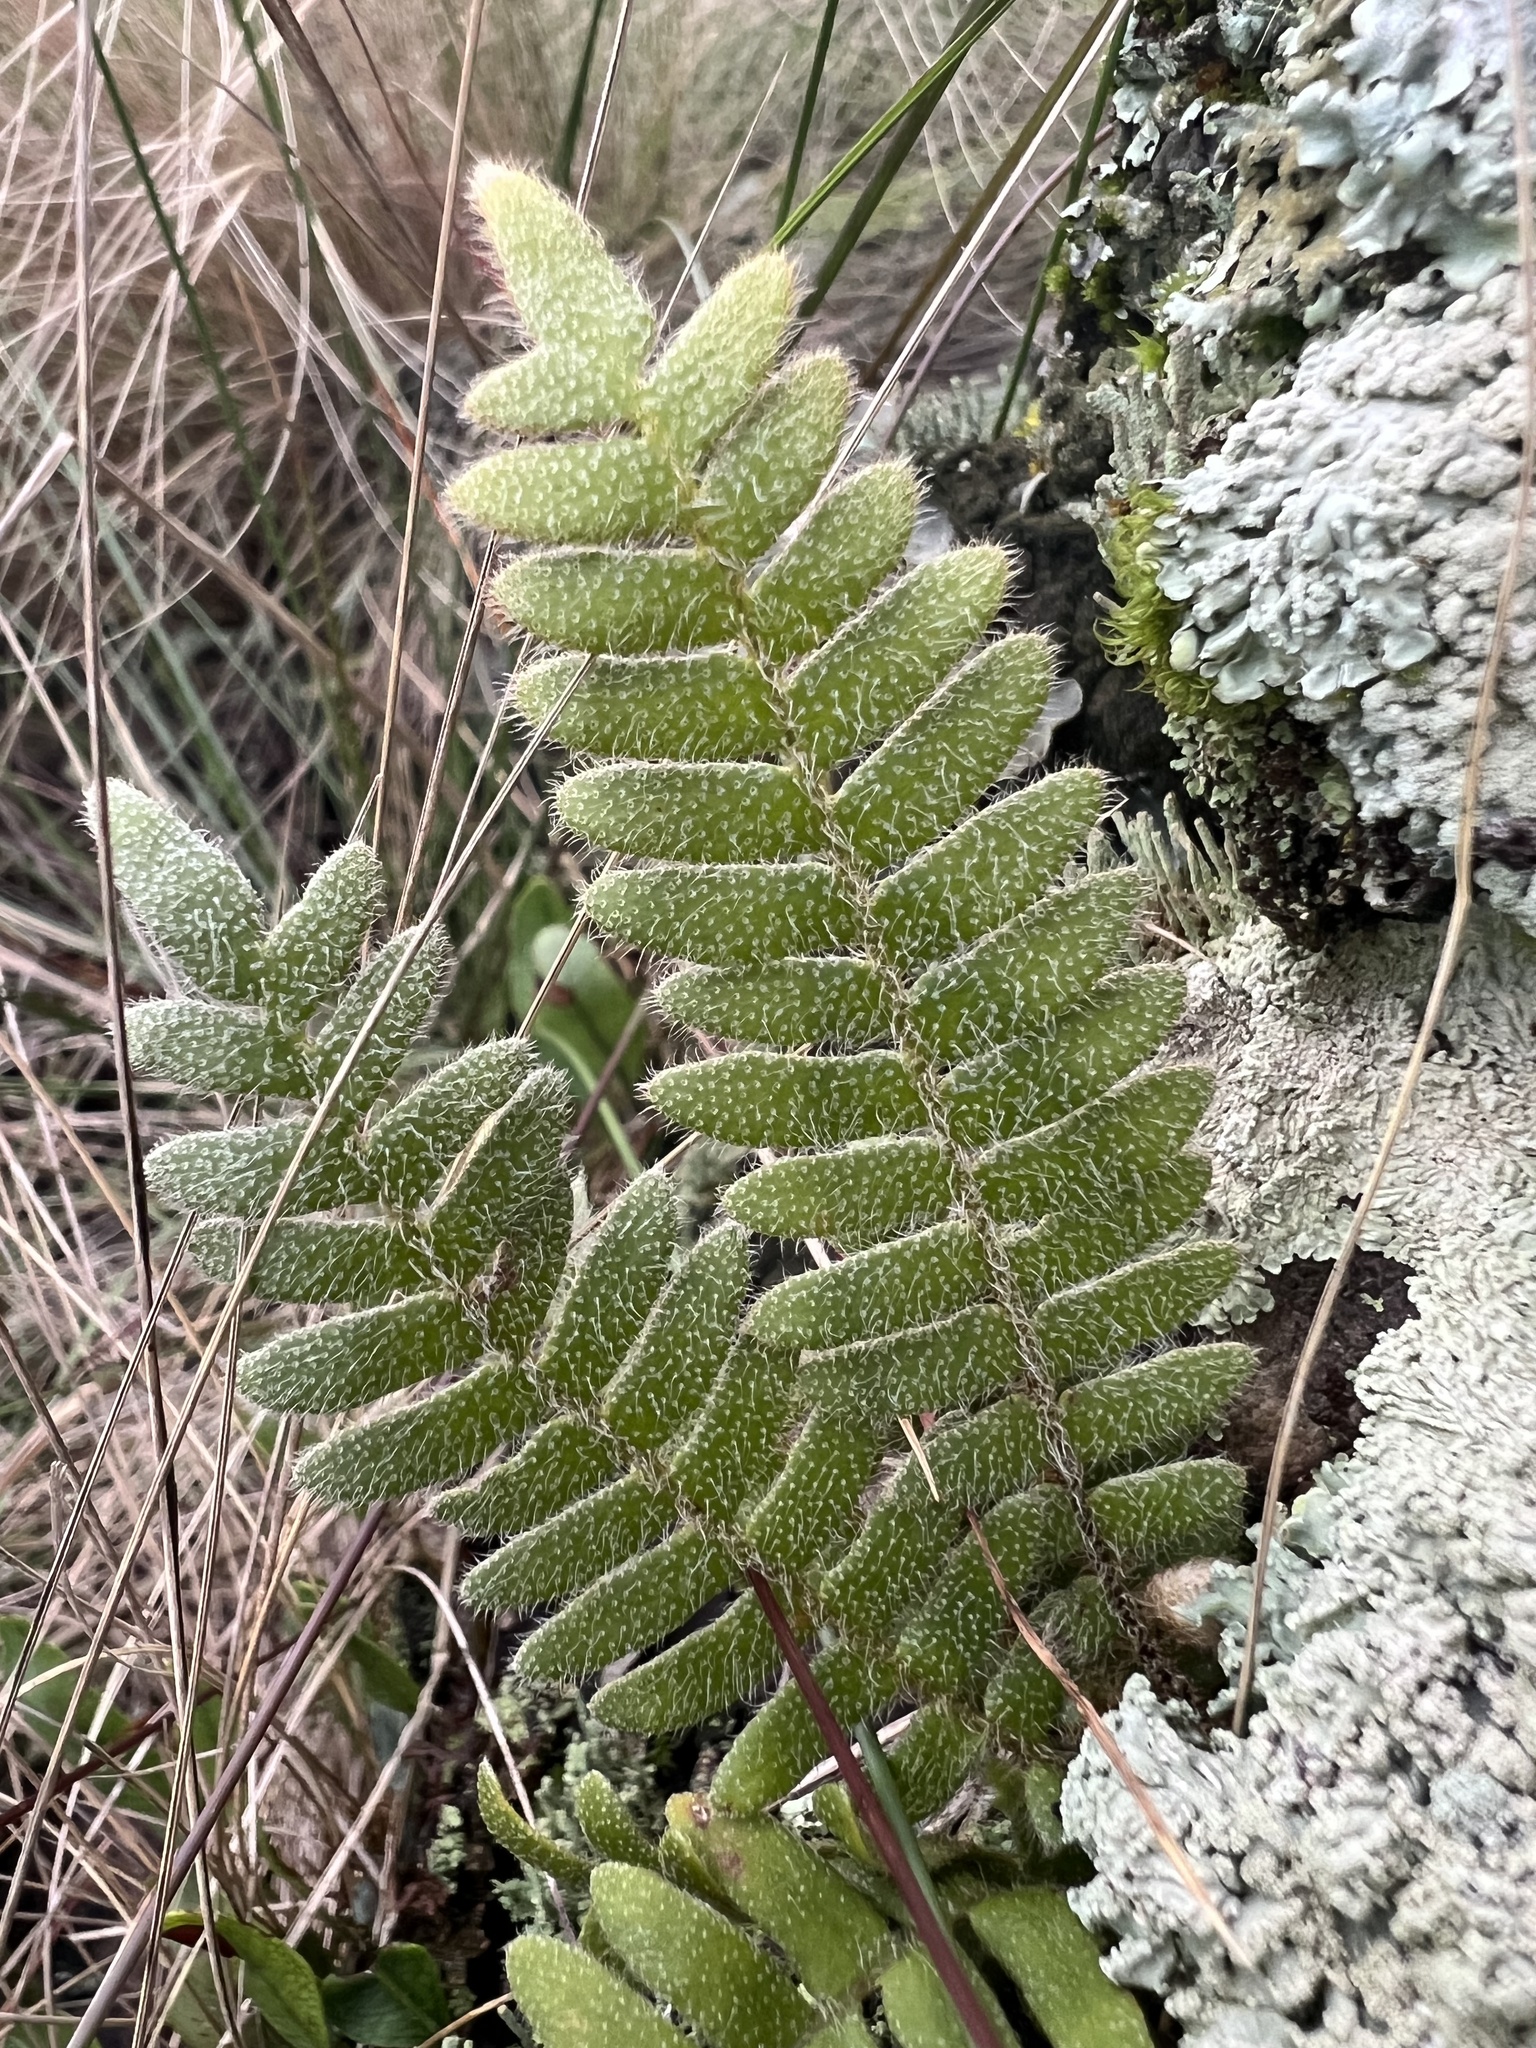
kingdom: Plantae
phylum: Tracheophyta
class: Polypodiopsida
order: Polypodiales
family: Polypodiaceae
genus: Pleopeltis
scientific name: Pleopeltis hirsutissima
